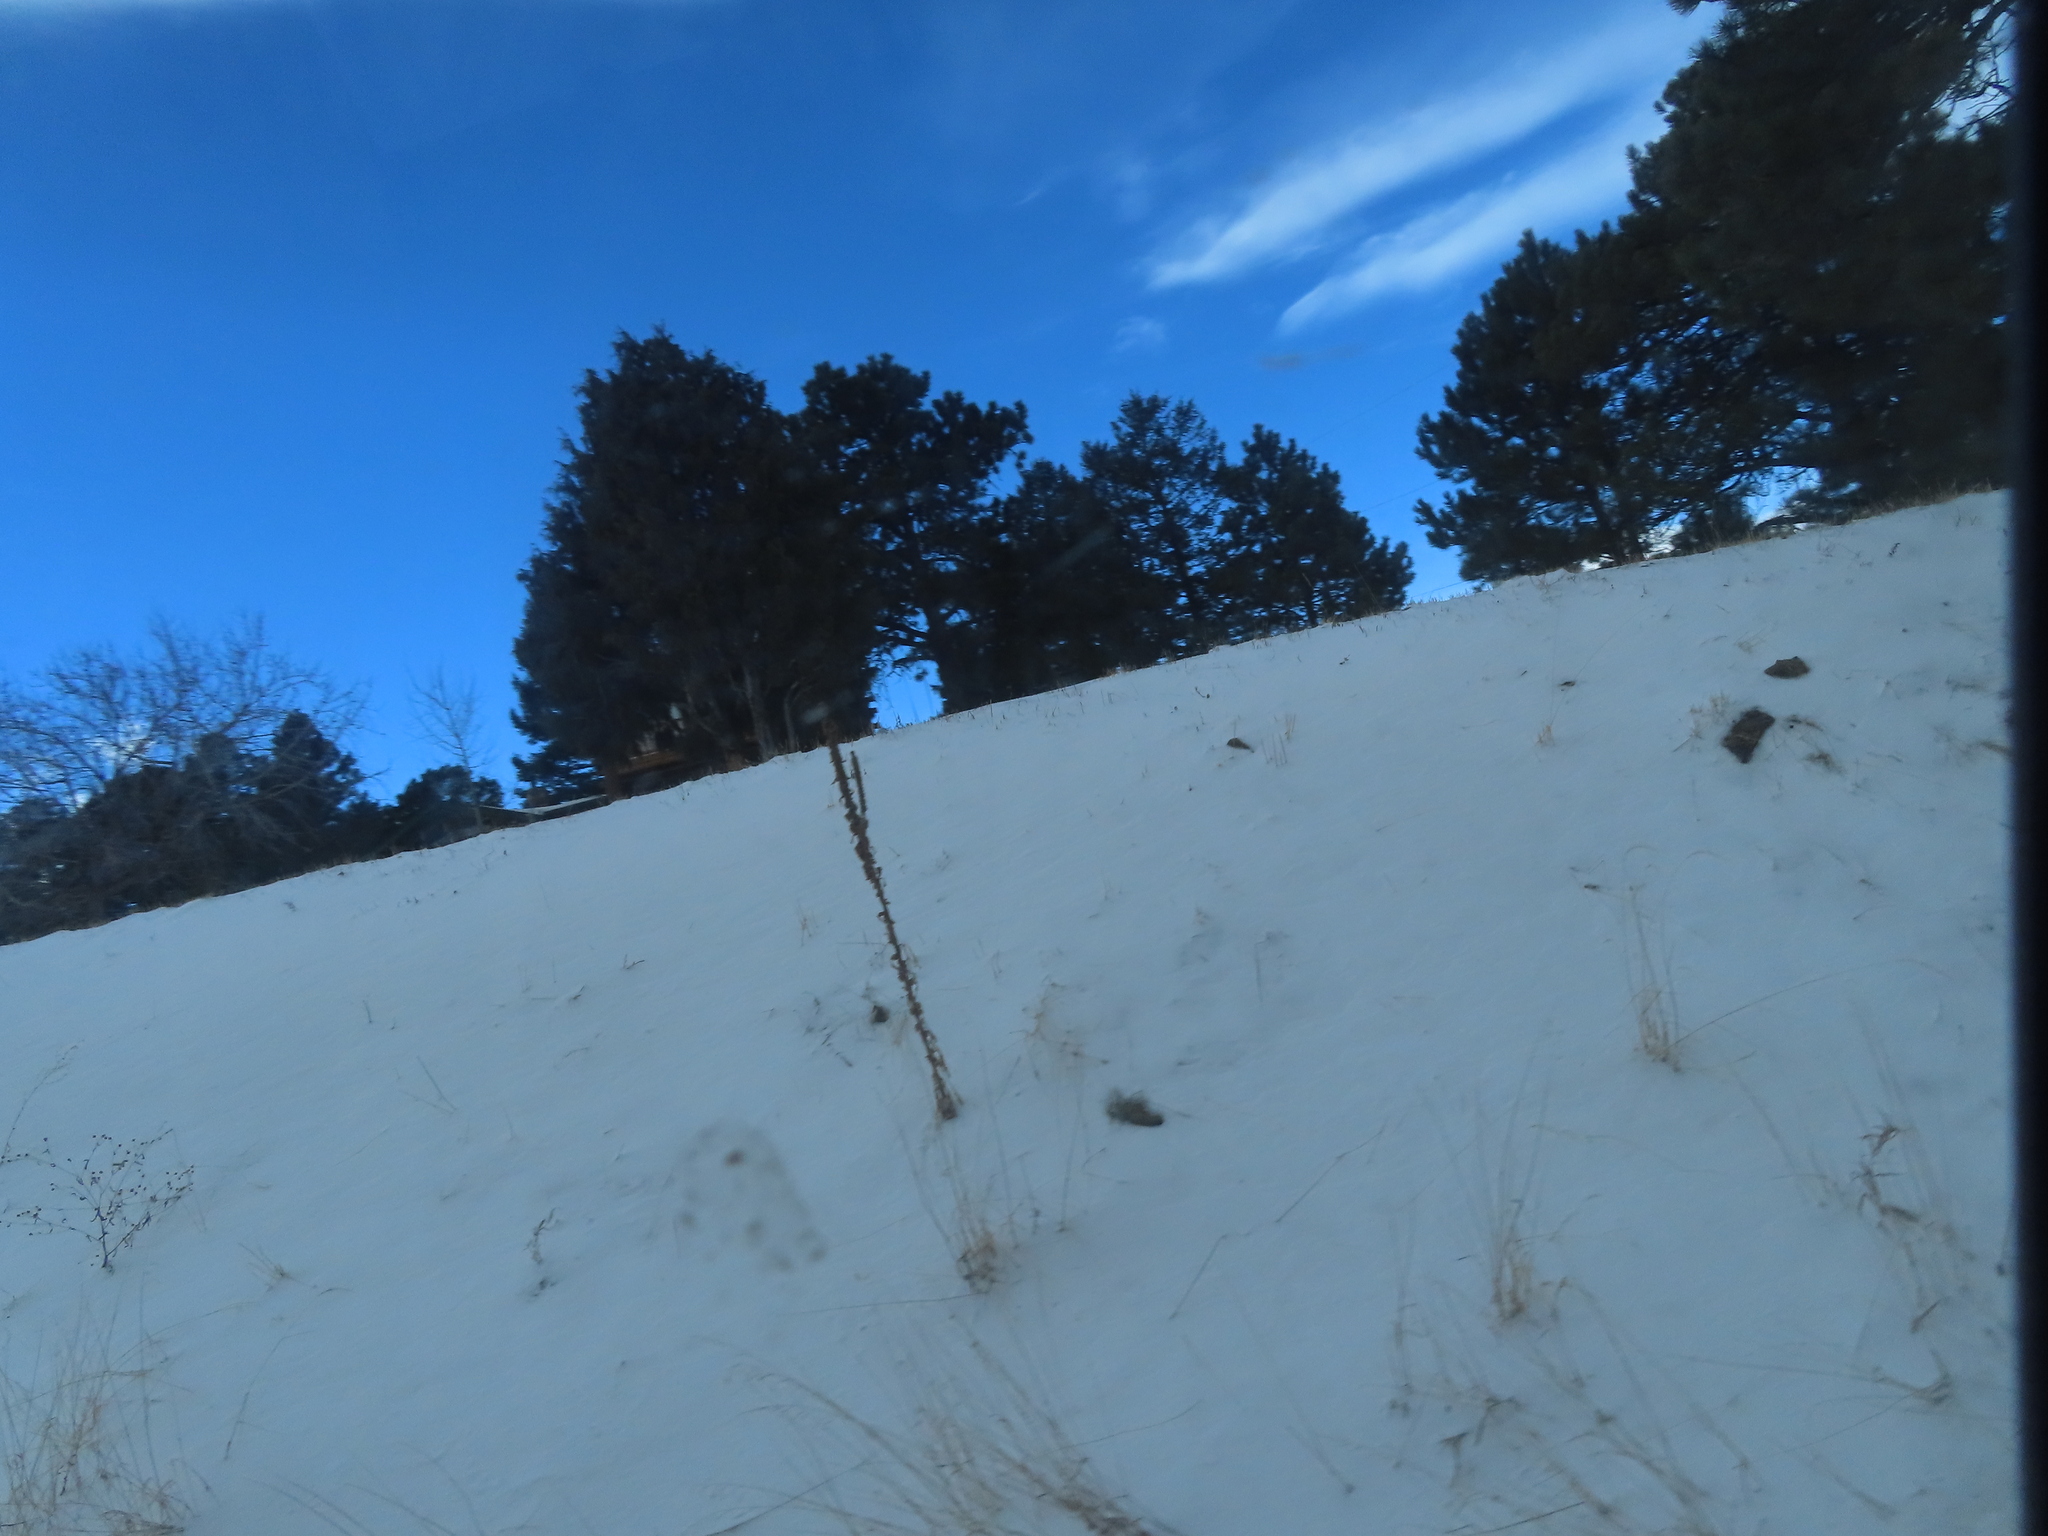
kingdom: Plantae
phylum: Tracheophyta
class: Magnoliopsida
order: Lamiales
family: Scrophulariaceae
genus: Verbascum
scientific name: Verbascum thapsus
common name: Common mullein
